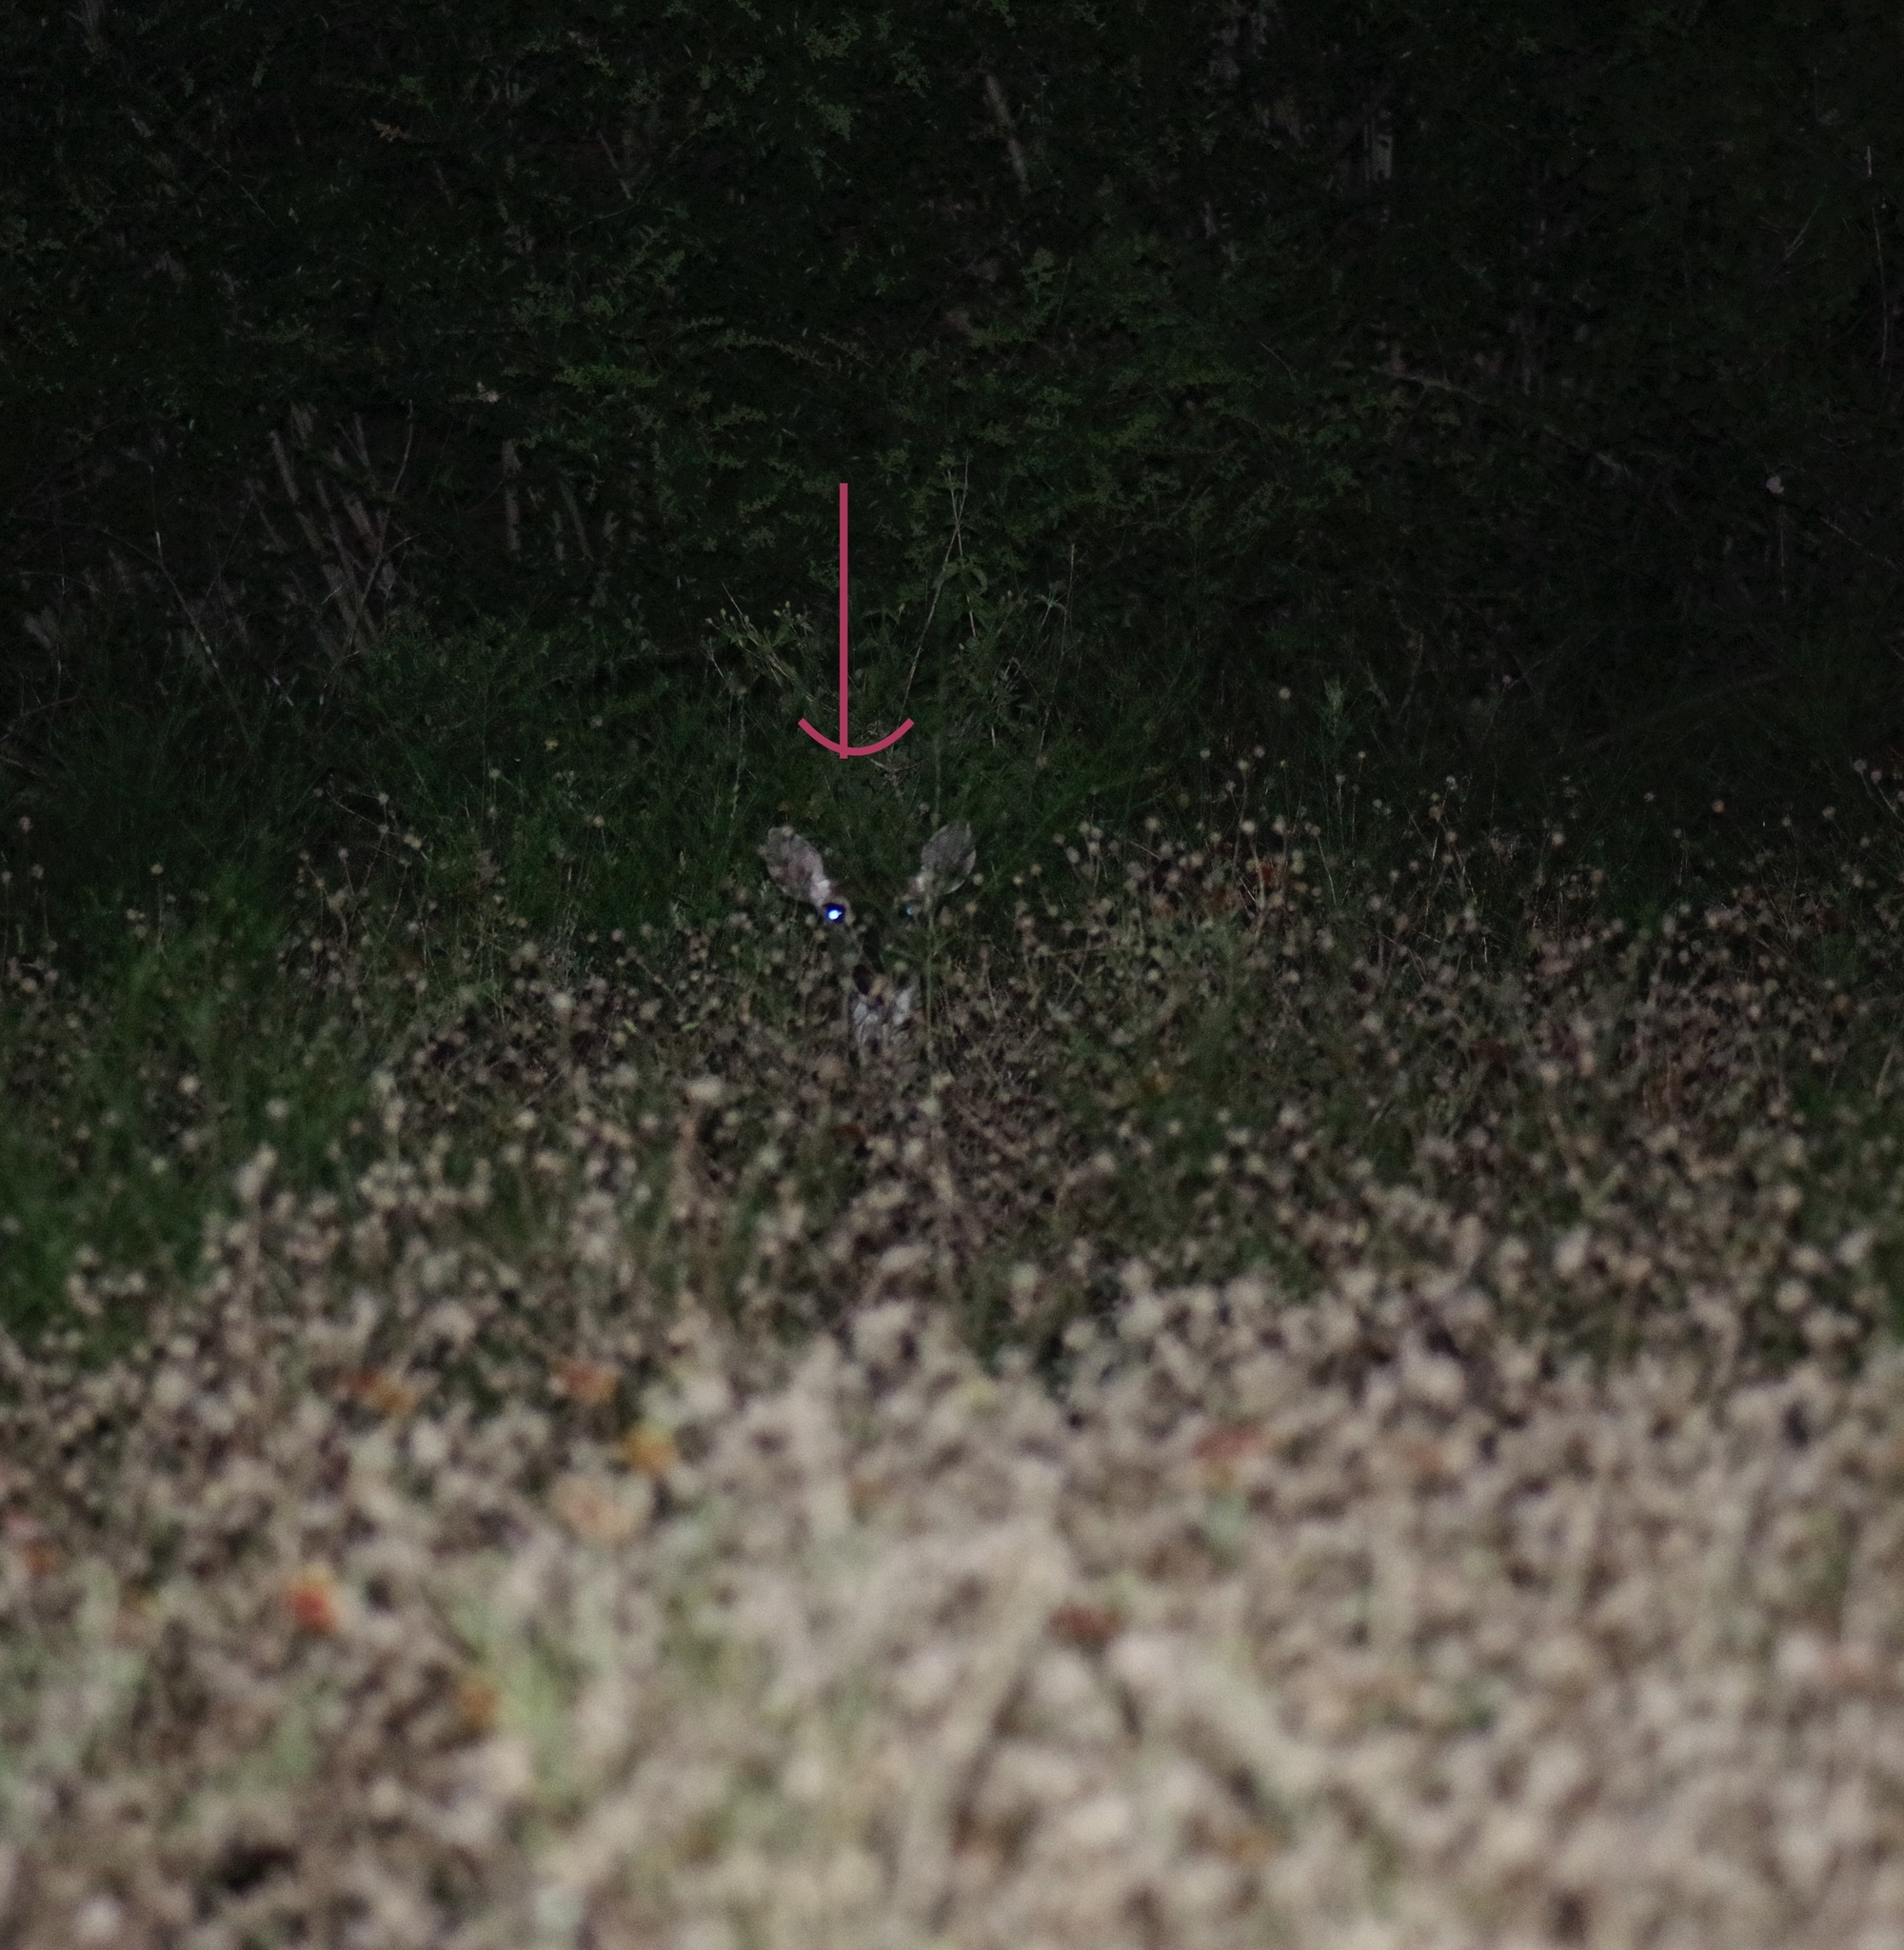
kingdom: Animalia
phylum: Chordata
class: Mammalia
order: Artiodactyla
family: Cervidae
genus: Odocoileus
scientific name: Odocoileus virginianus
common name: White-tailed deer
